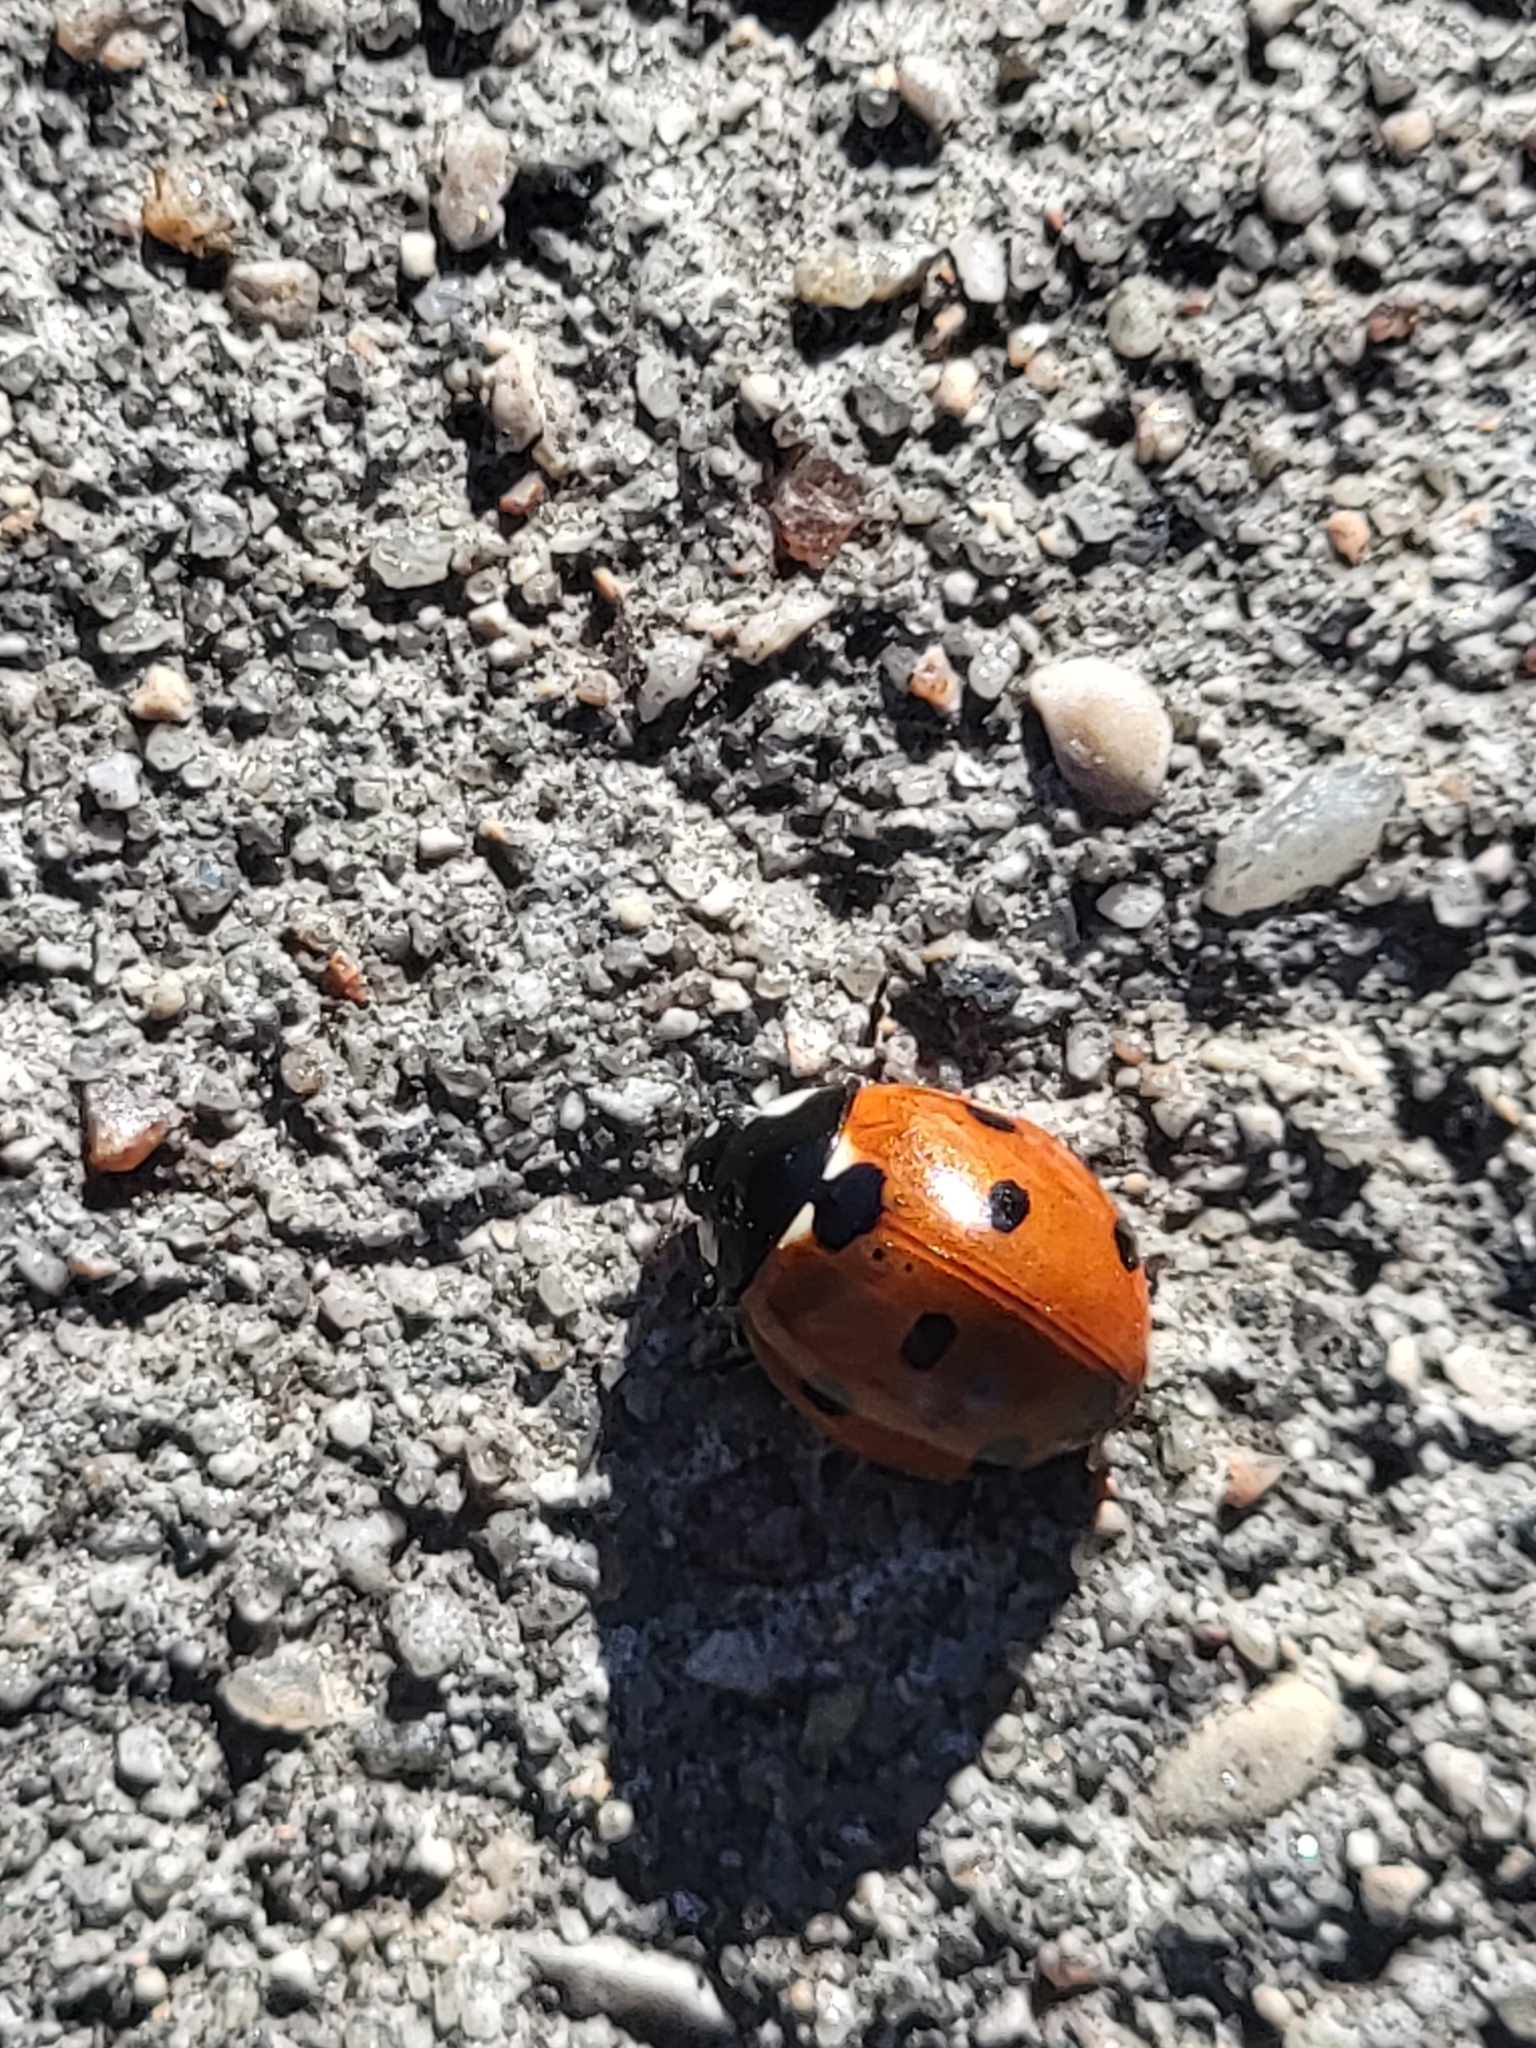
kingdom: Animalia
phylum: Arthropoda
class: Insecta
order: Coleoptera
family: Coccinellidae
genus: Coccinella
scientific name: Coccinella septempunctata
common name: Sevenspotted lady beetle
